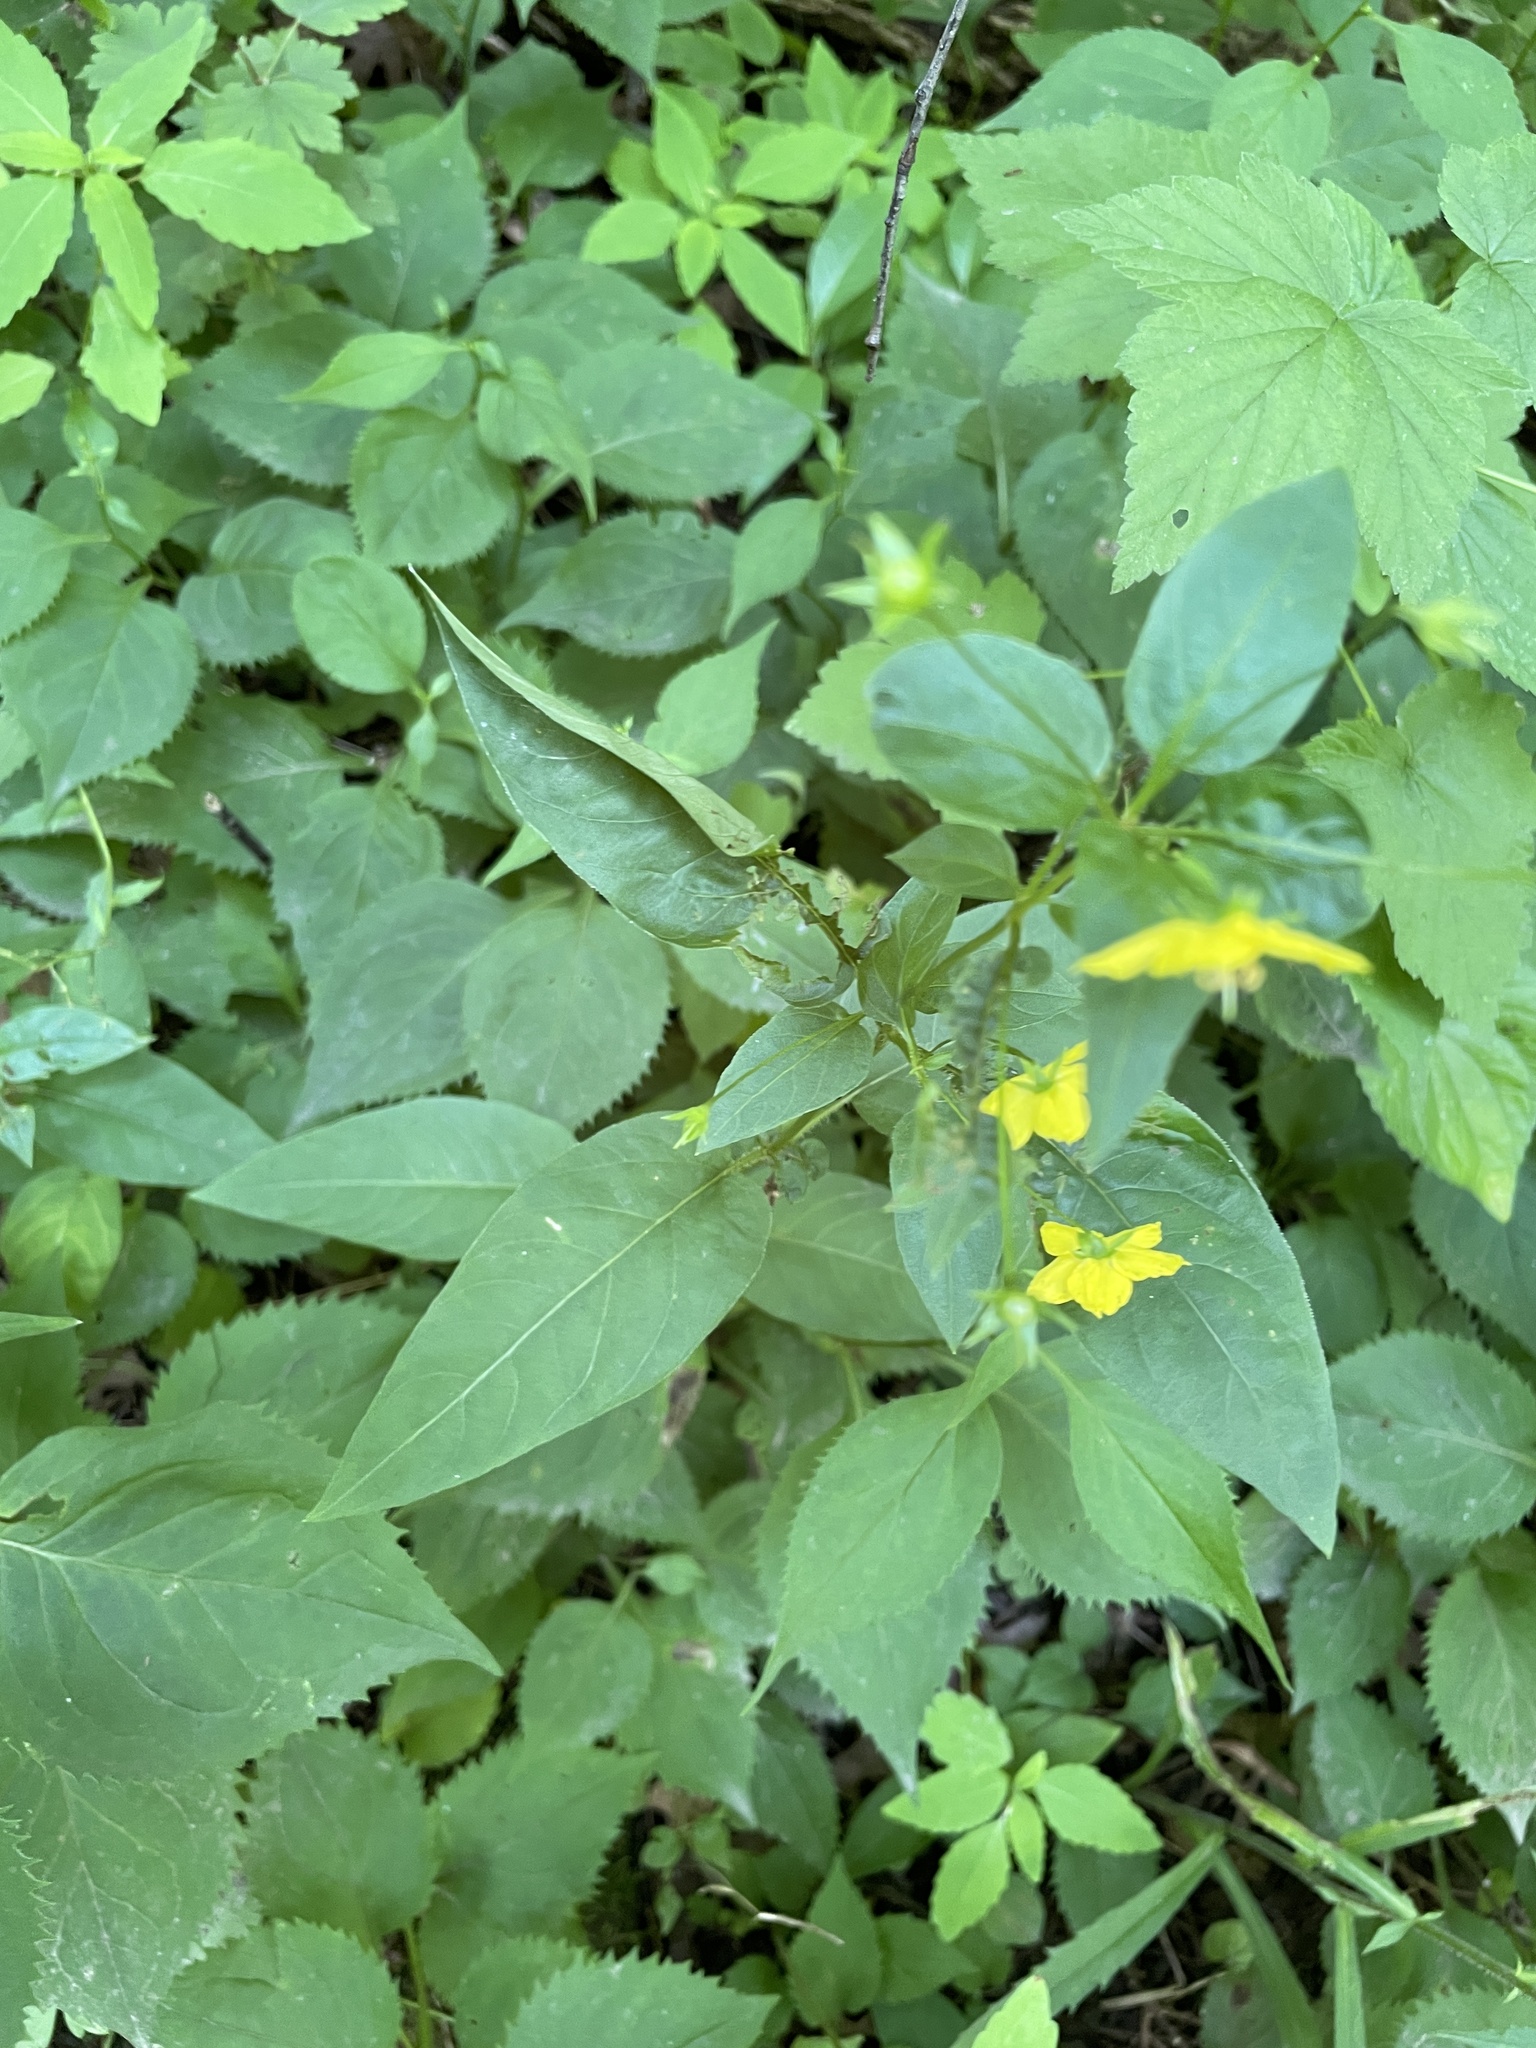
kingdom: Plantae
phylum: Tracheophyta
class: Magnoliopsida
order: Ericales
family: Primulaceae
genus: Lysimachia
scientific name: Lysimachia ciliata
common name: Fringed loosestrife
